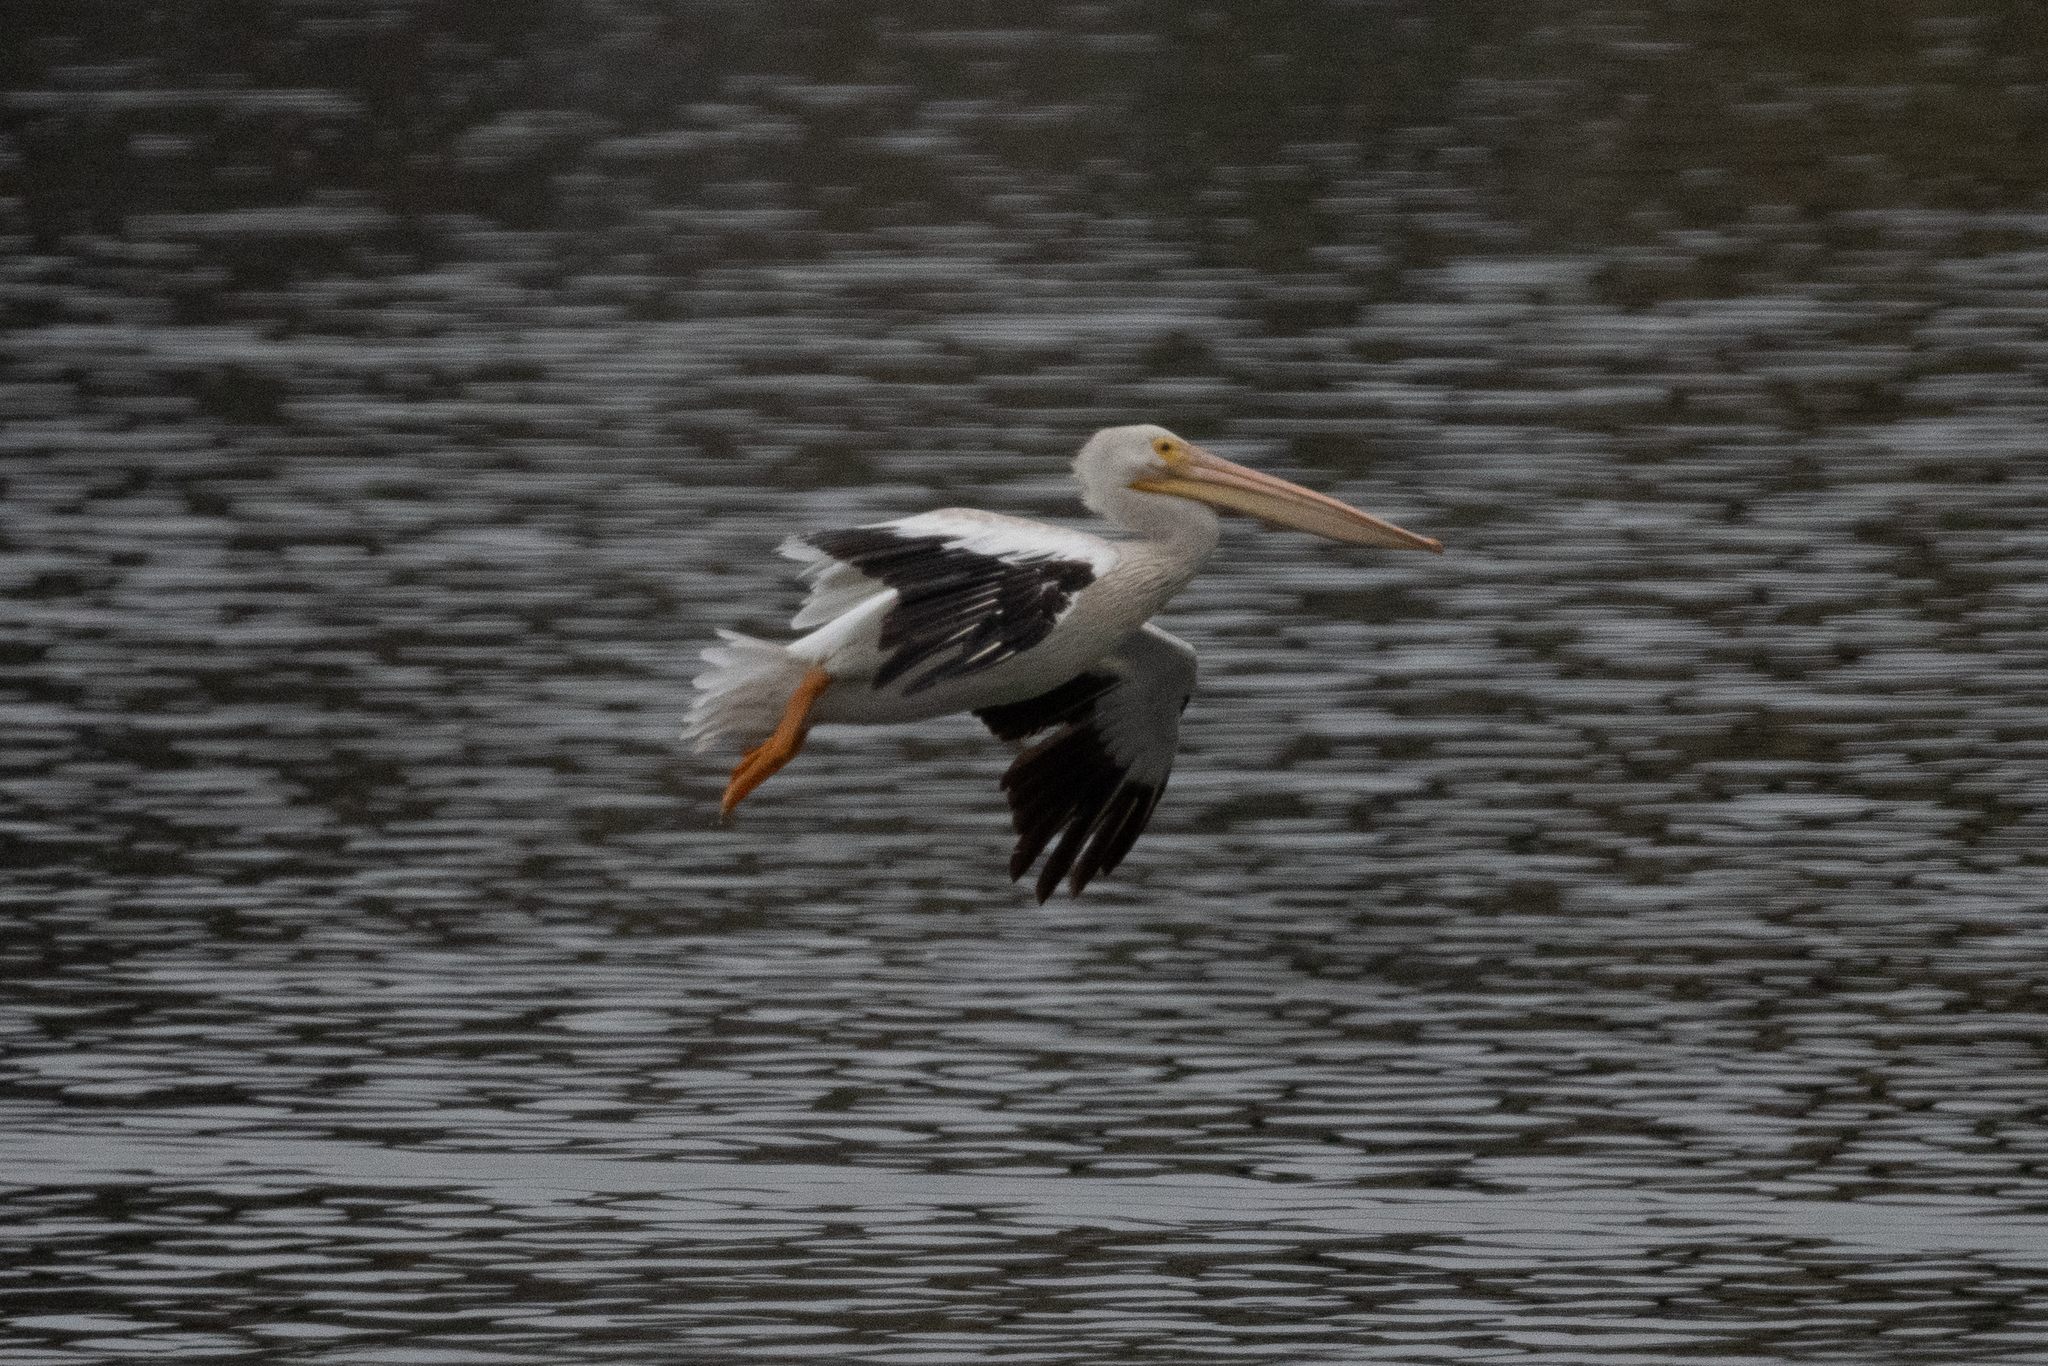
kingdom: Animalia
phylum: Chordata
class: Aves
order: Pelecaniformes
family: Pelecanidae
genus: Pelecanus
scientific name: Pelecanus erythrorhynchos
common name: American white pelican
